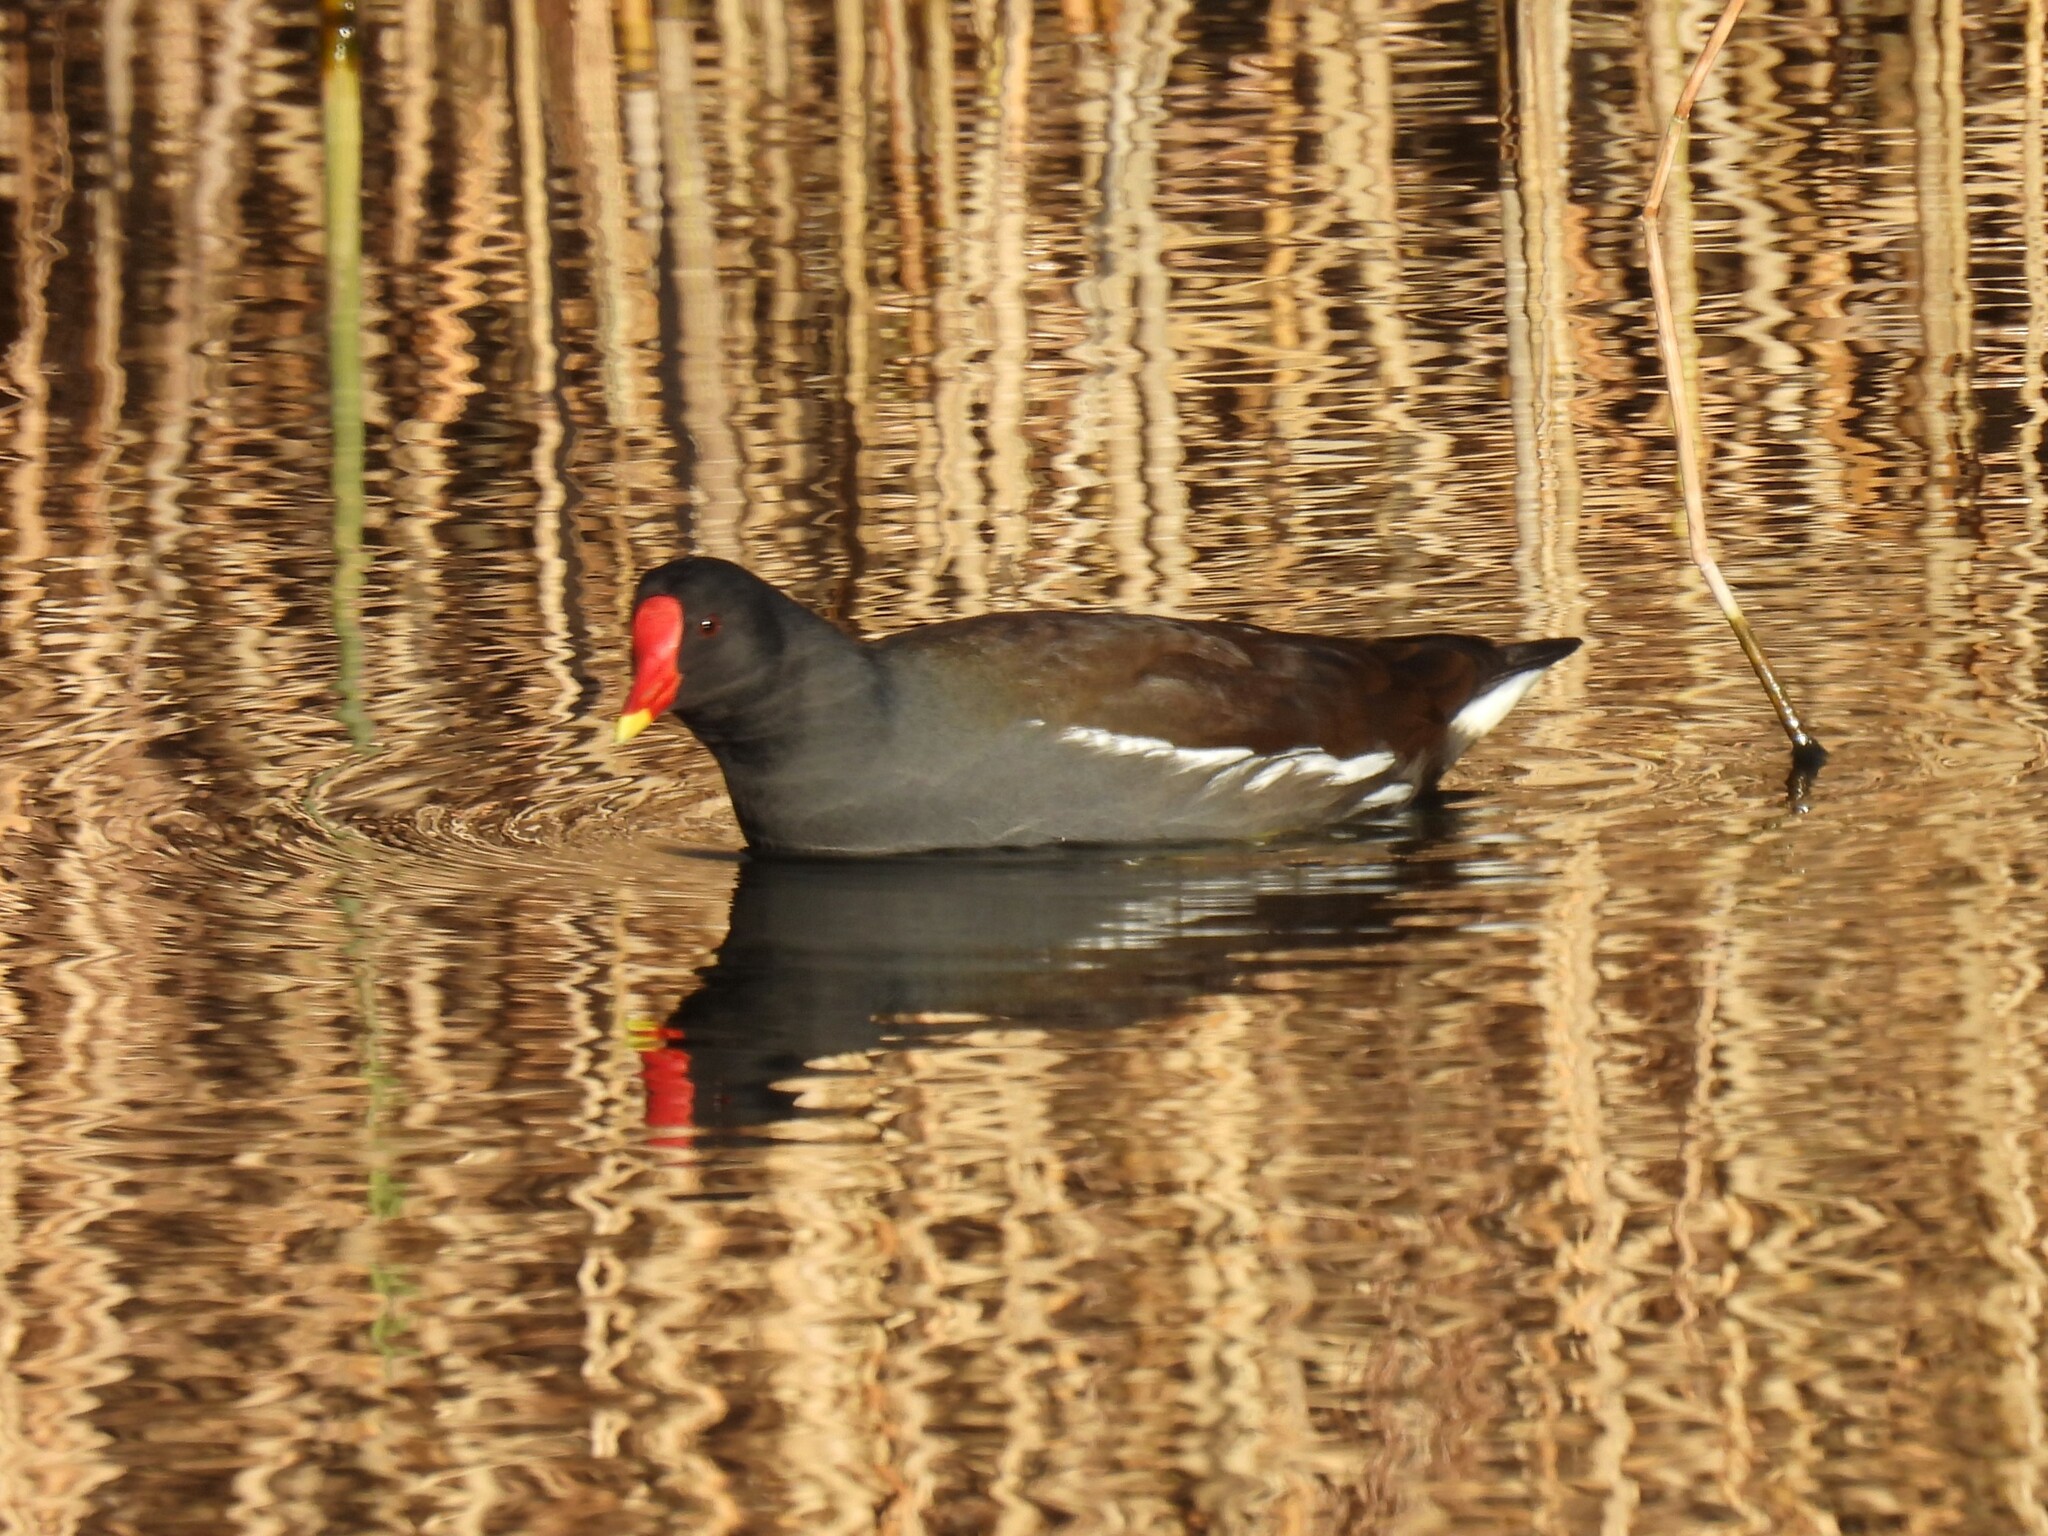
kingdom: Animalia
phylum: Chordata
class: Aves
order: Gruiformes
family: Rallidae
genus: Gallinula
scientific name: Gallinula chloropus
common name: Common moorhen
